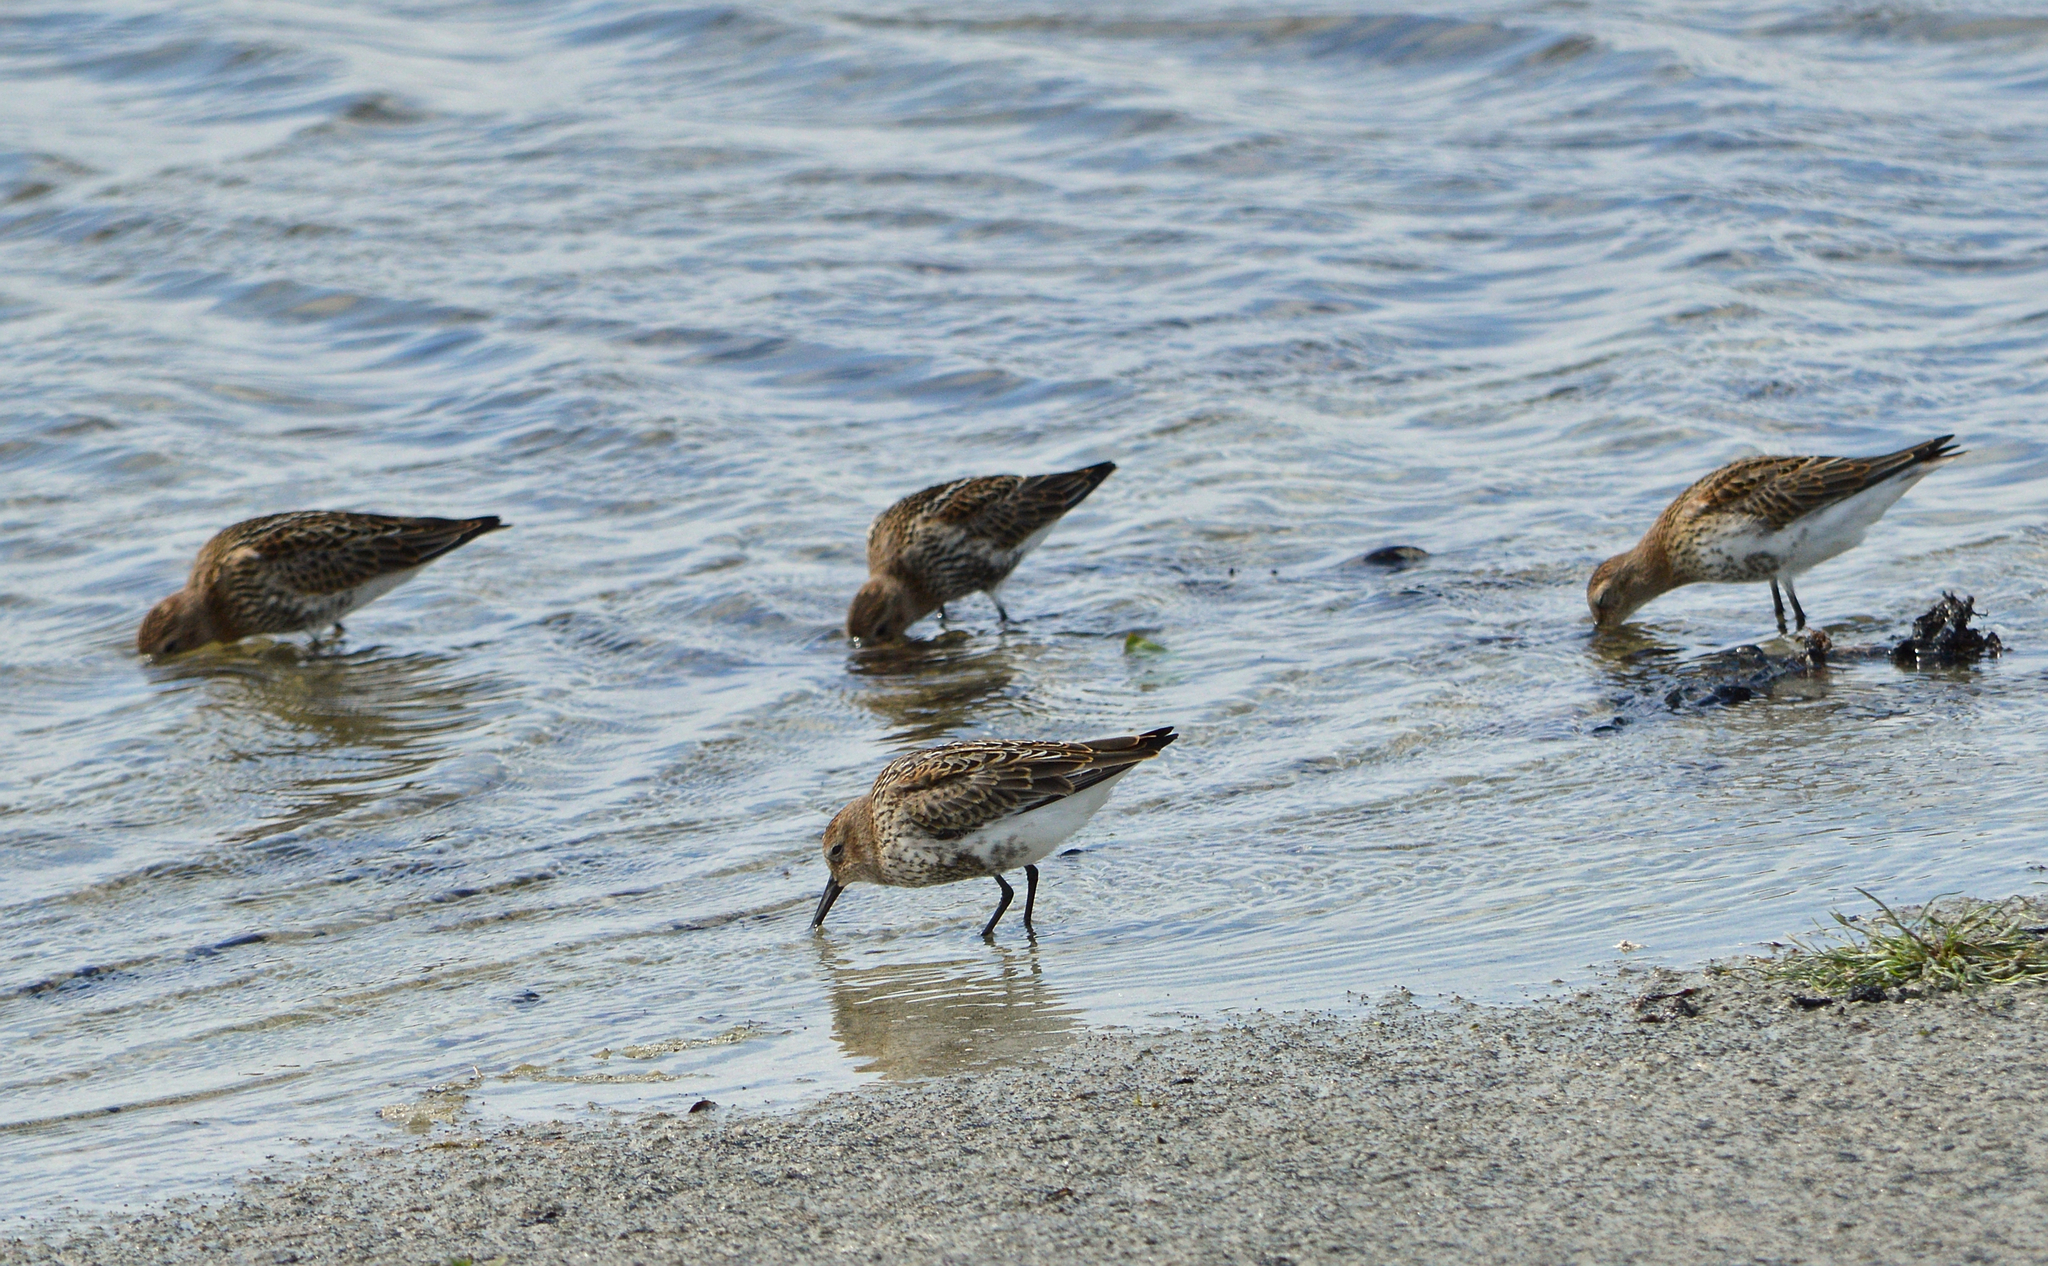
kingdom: Animalia
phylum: Chordata
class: Aves
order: Charadriiformes
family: Scolopacidae
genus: Calidris
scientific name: Calidris alpina
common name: Dunlin
